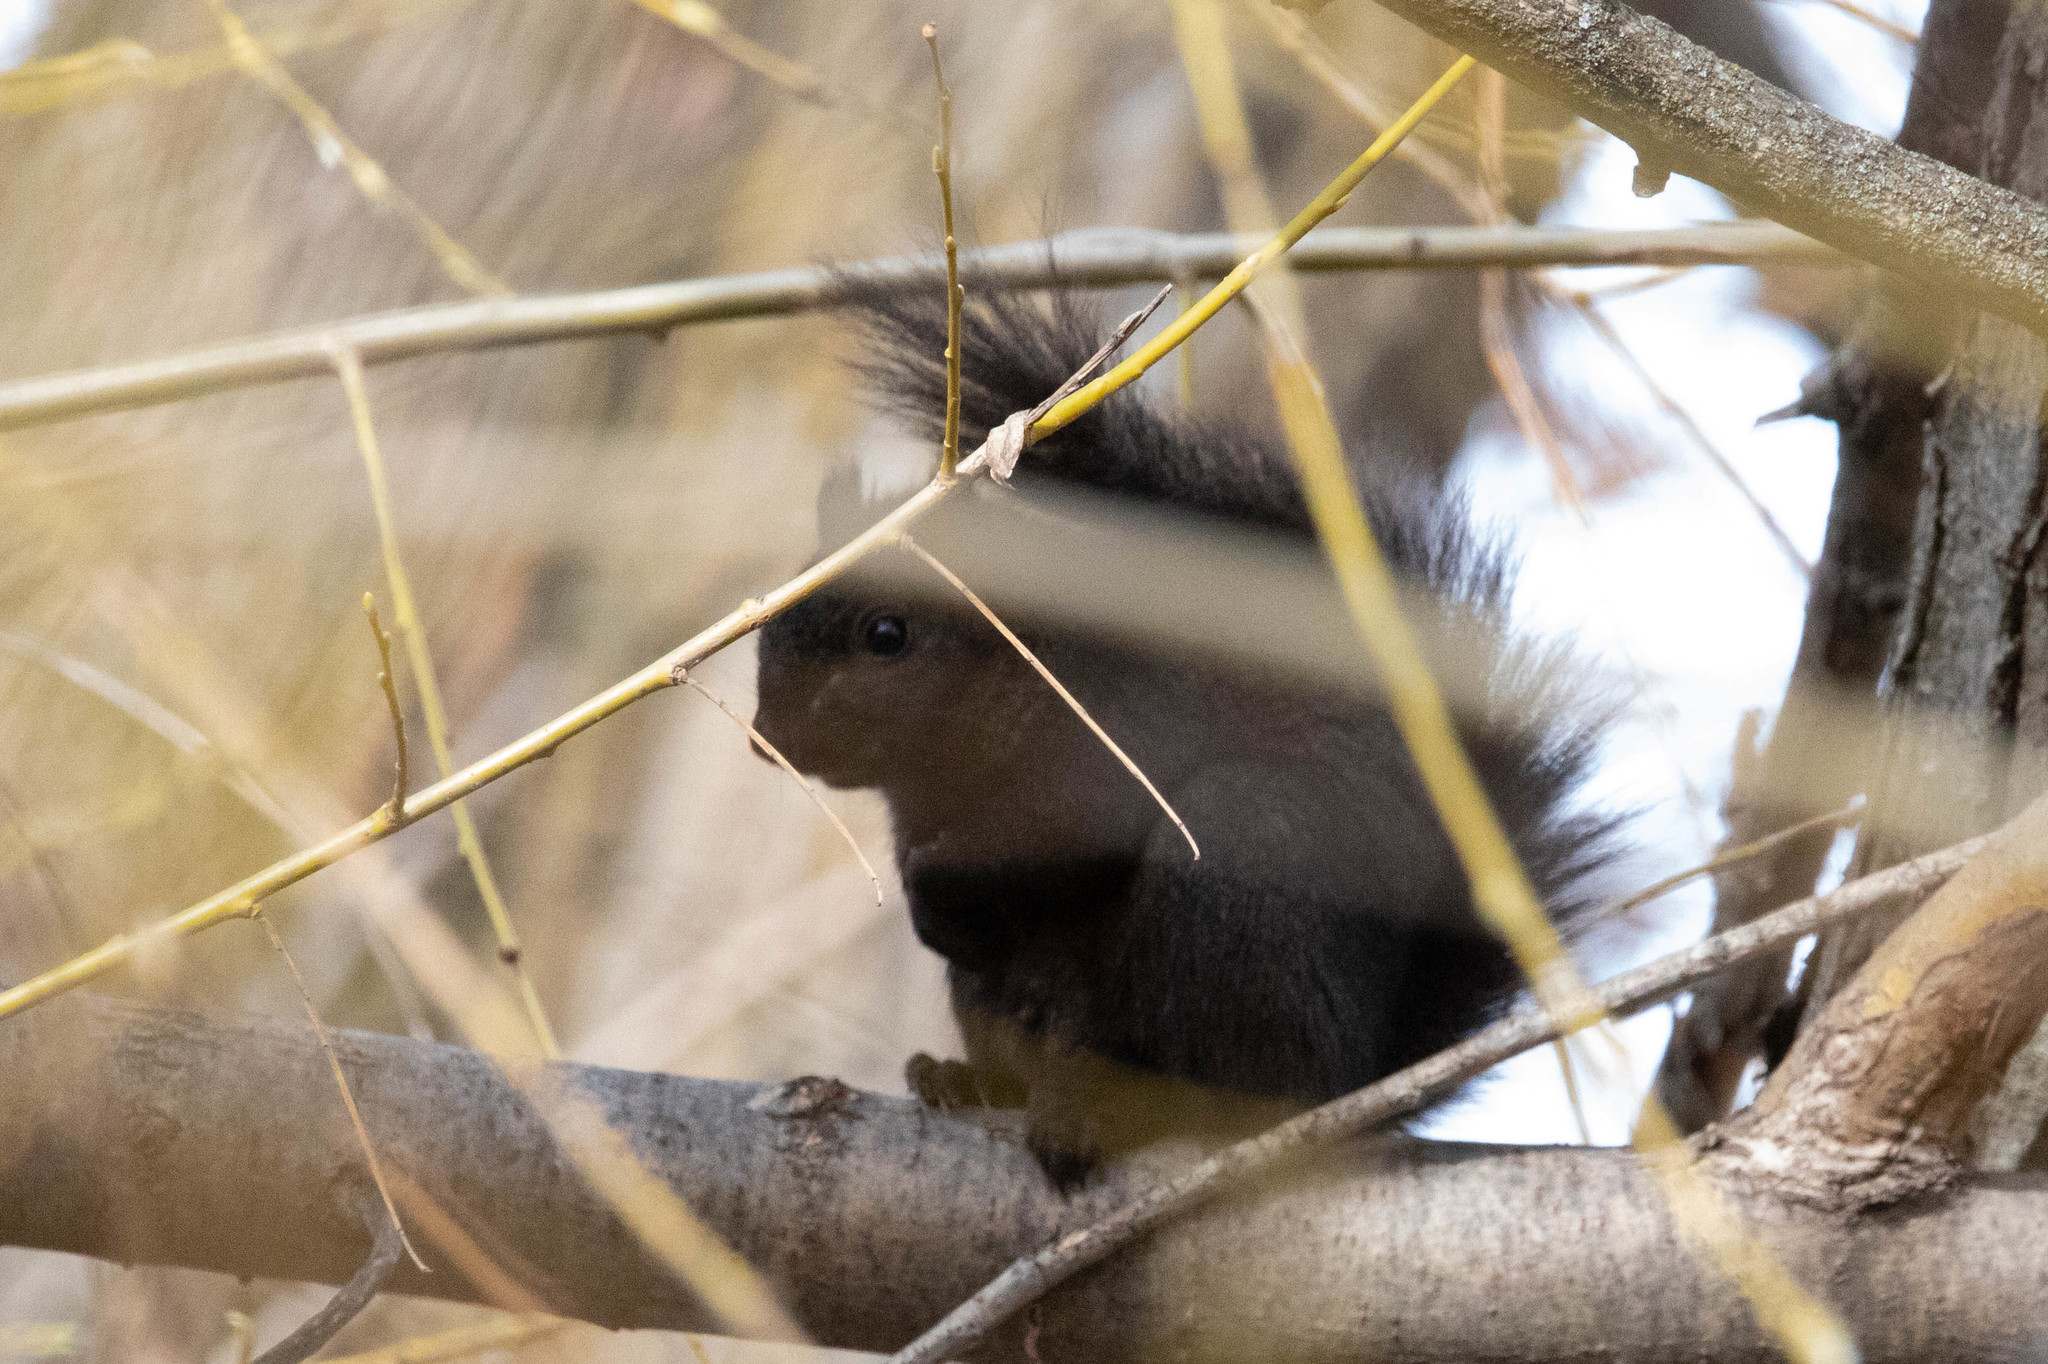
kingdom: Animalia
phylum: Chordata
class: Mammalia
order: Rodentia
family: Sciuridae
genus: Sciurus
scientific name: Sciurus carolinensis
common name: Eastern gray squirrel
